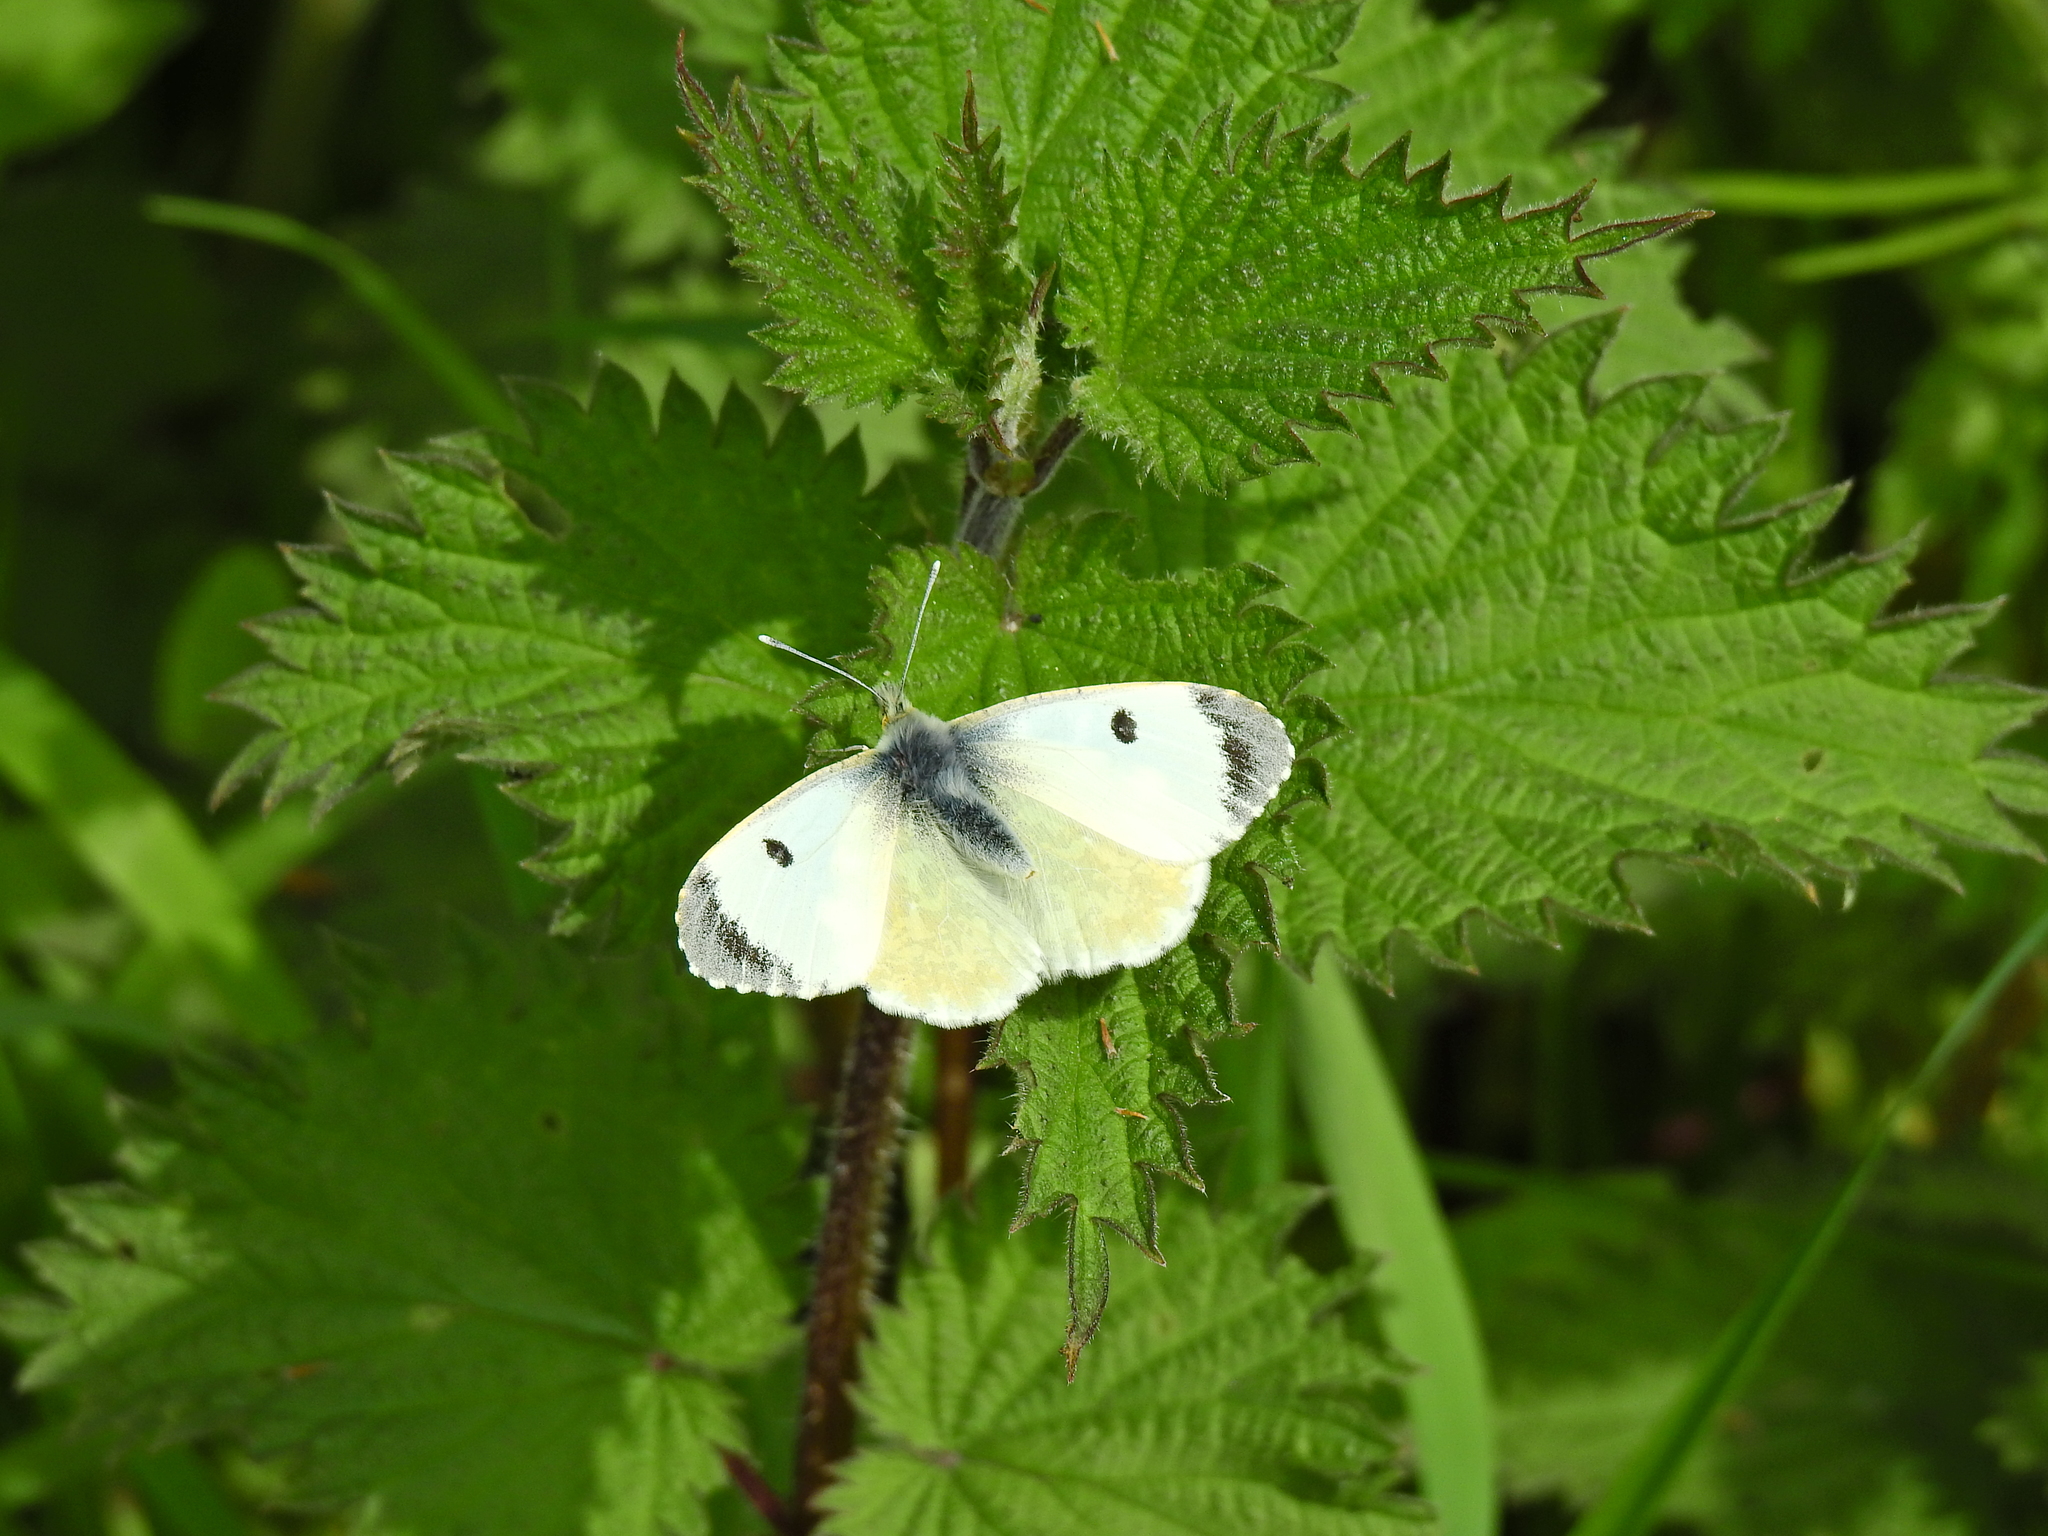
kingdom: Animalia
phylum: Arthropoda
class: Insecta
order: Lepidoptera
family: Pieridae
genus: Anthocharis
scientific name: Anthocharis cardamines
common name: Orange-tip
